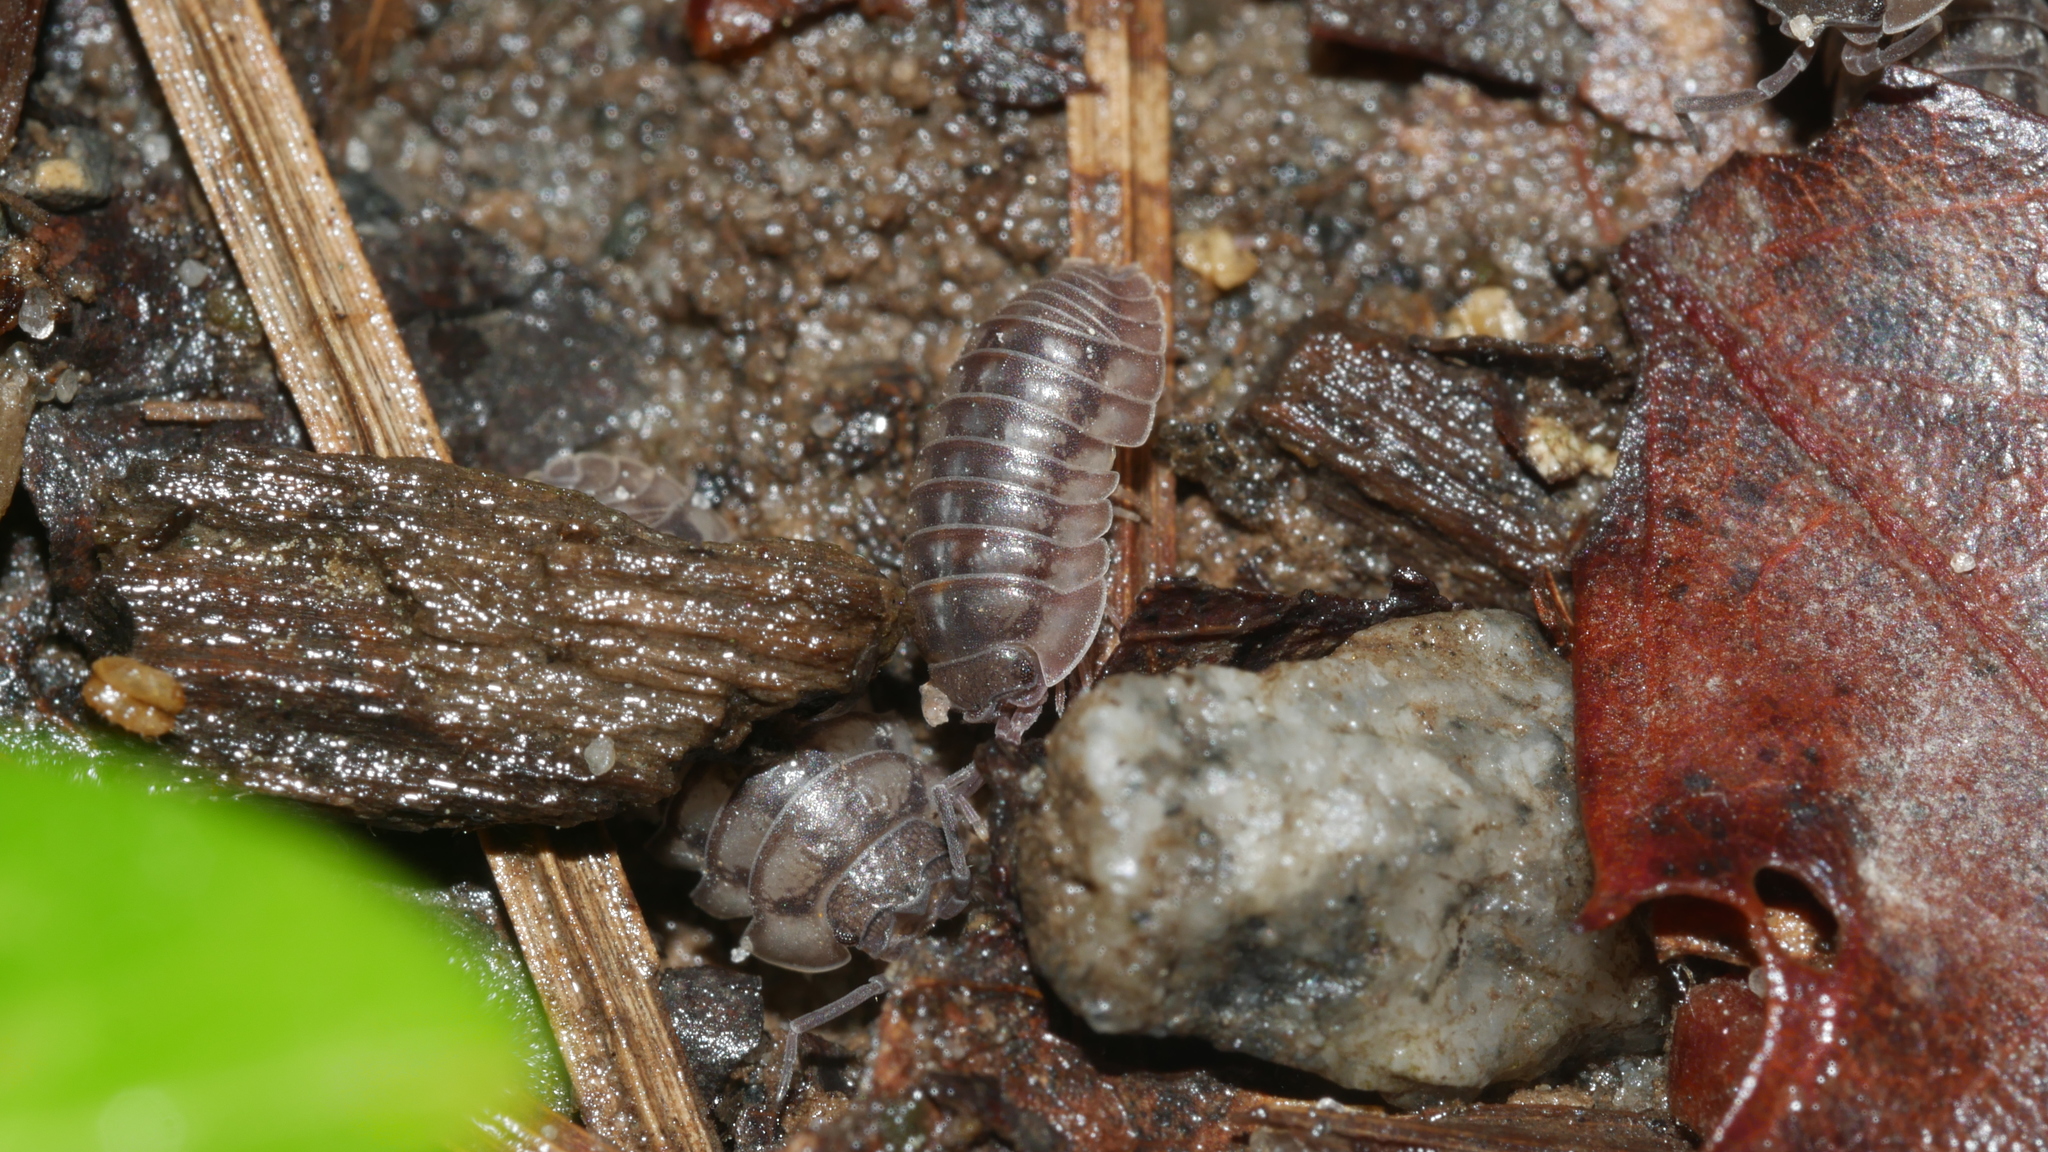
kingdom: Animalia
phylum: Arthropoda
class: Malacostraca
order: Isopoda
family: Armadillidiidae
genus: Armadillidium
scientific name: Armadillidium nasatum
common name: Isopod
